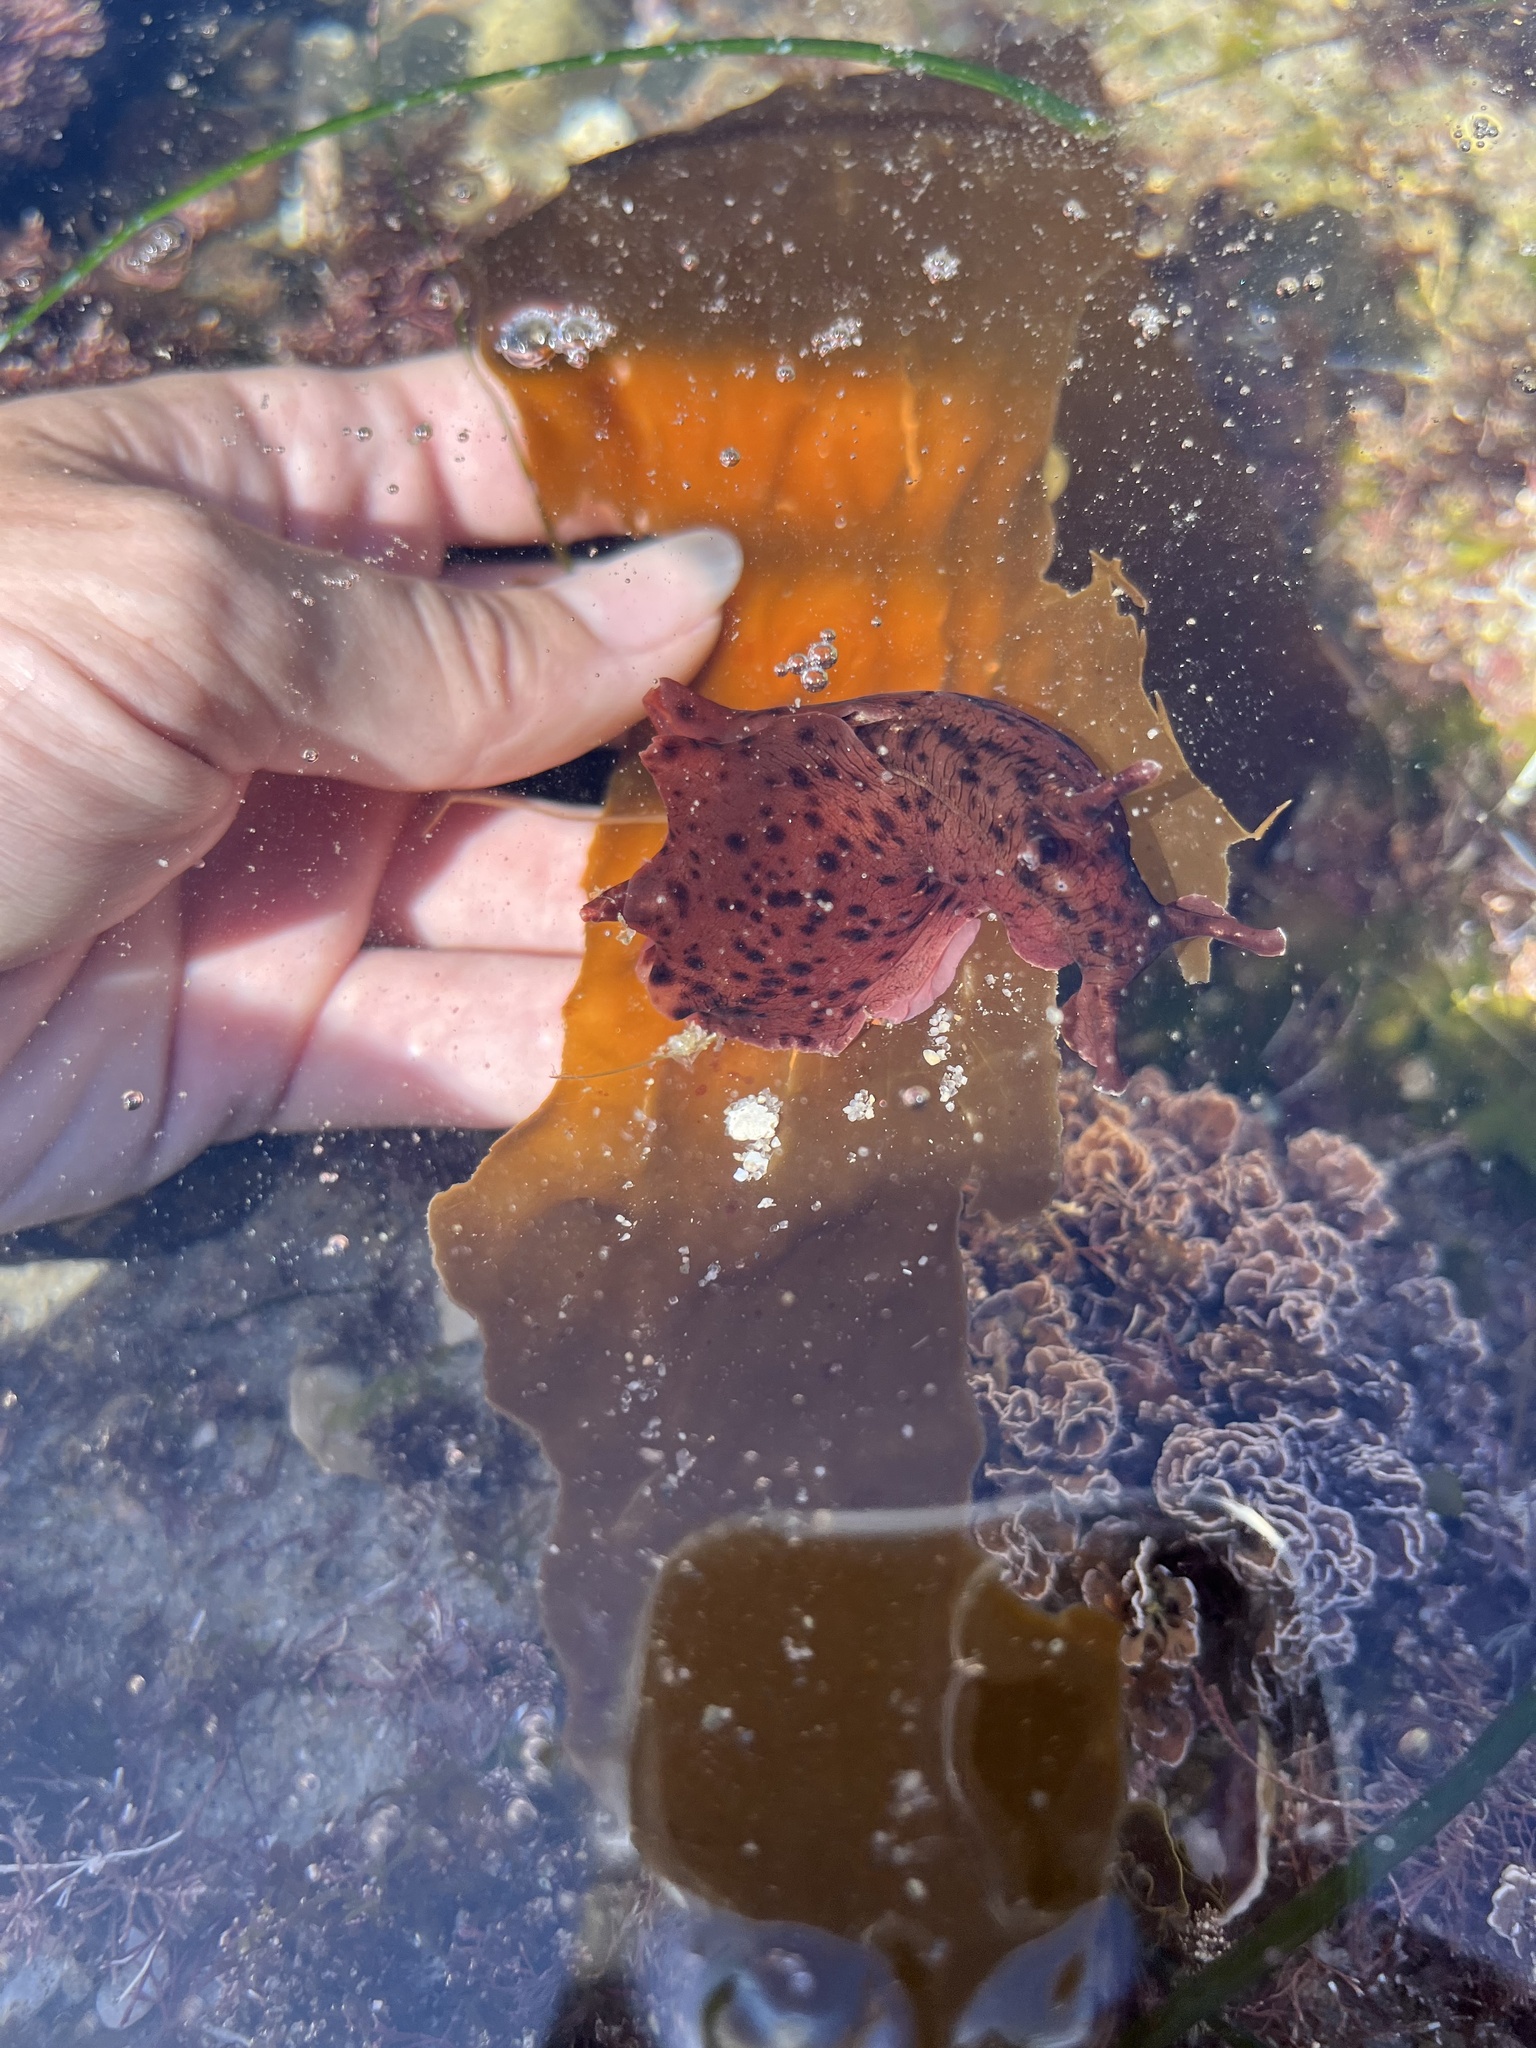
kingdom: Animalia
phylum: Mollusca
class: Gastropoda
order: Aplysiida
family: Aplysiidae
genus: Aplysia
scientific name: Aplysia californica
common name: California seahare
